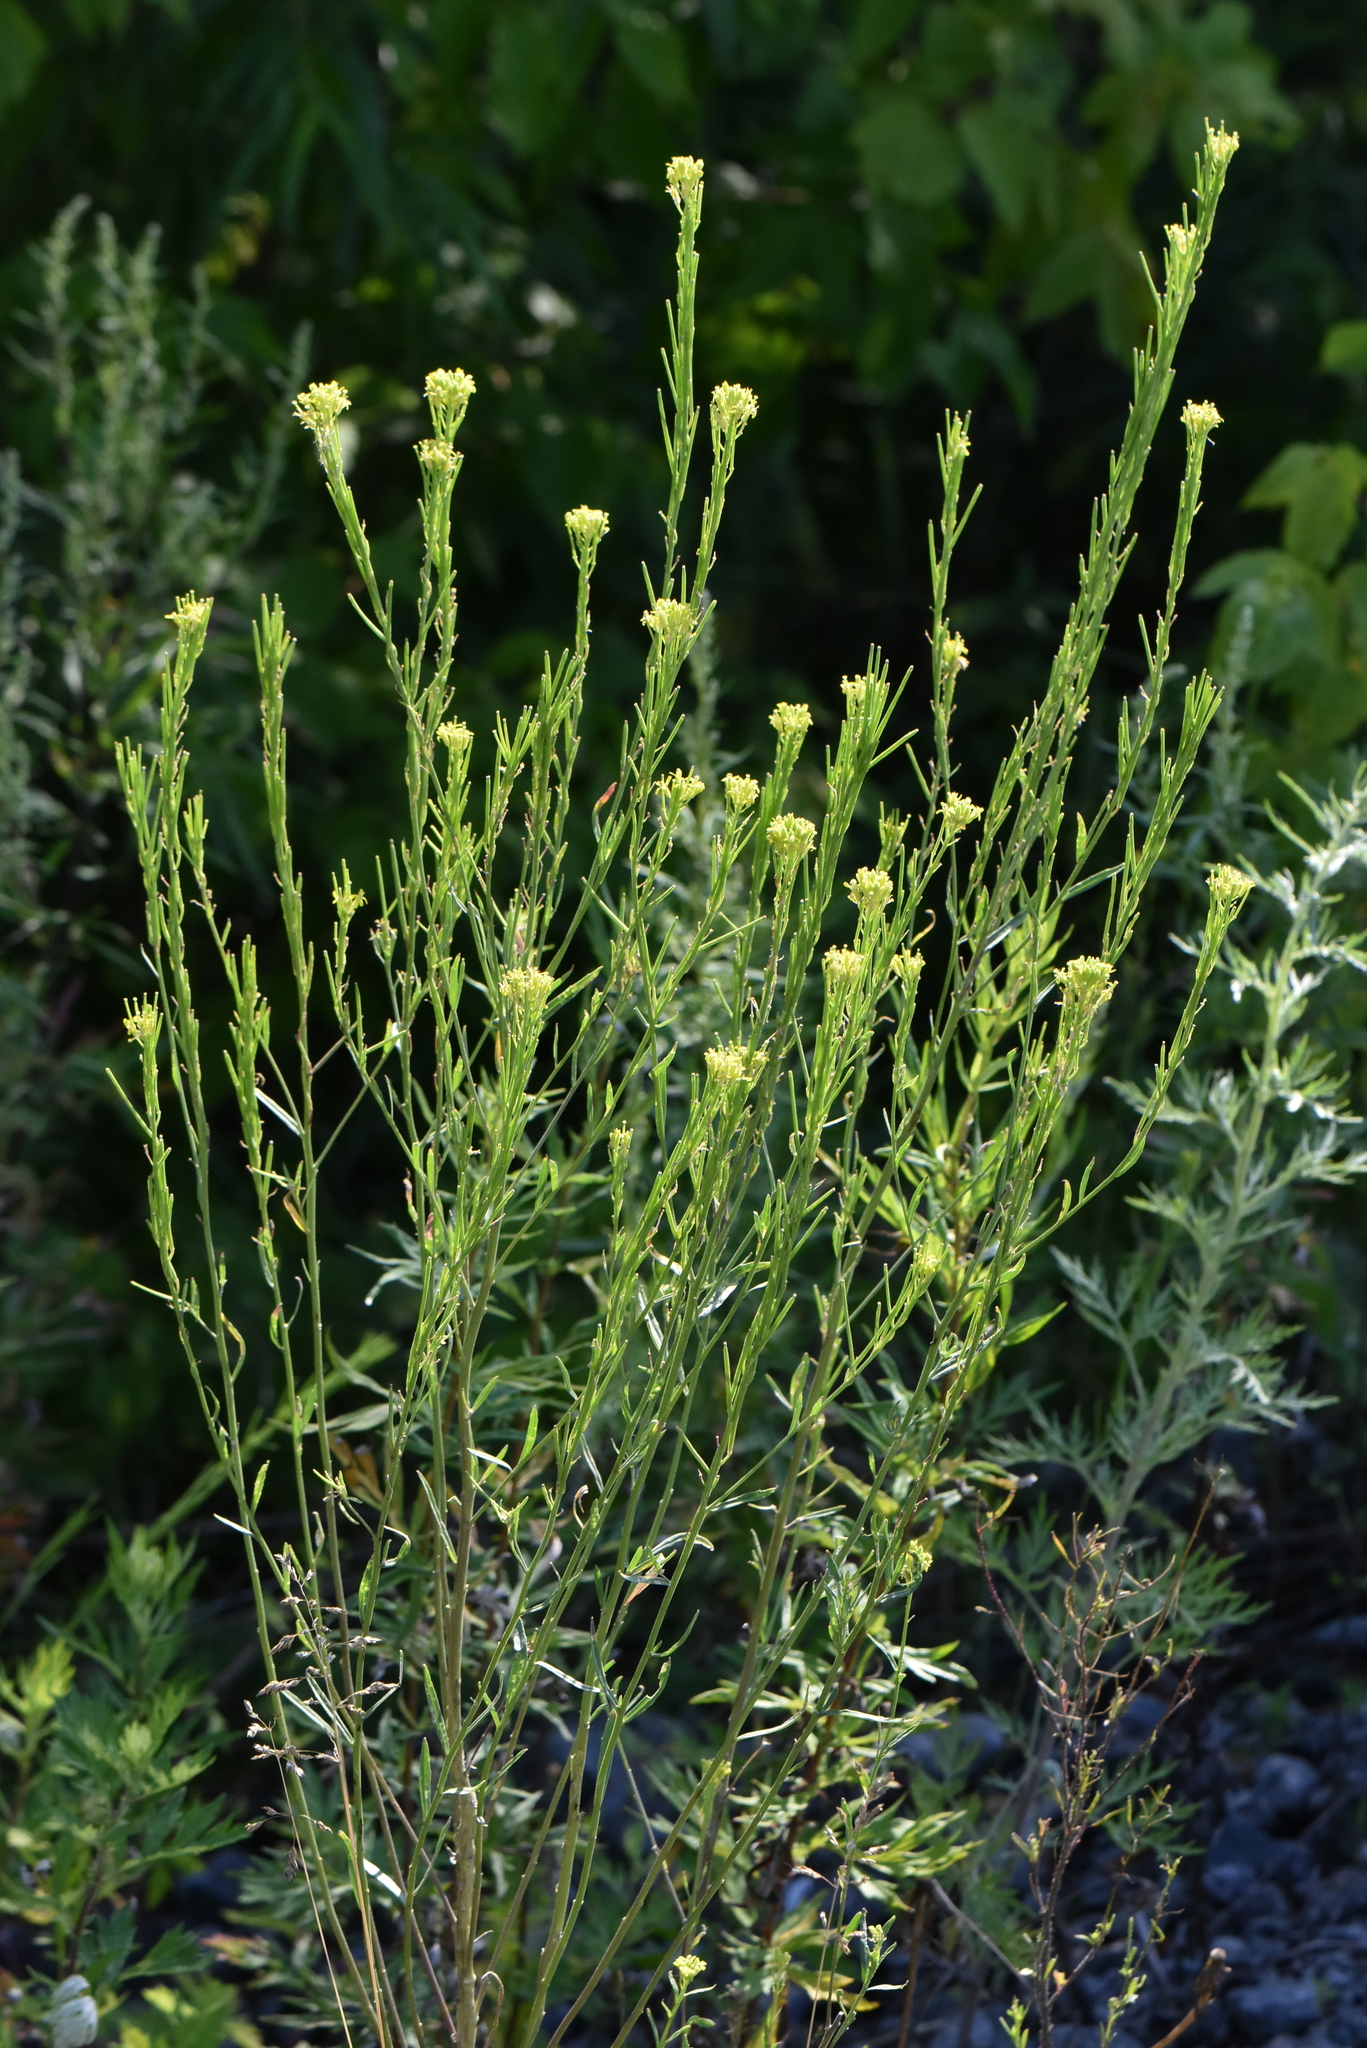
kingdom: Plantae
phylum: Tracheophyta
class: Magnoliopsida
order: Brassicales
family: Brassicaceae
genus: Erysimum
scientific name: Erysimum hieraciifolium
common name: European wallflower
